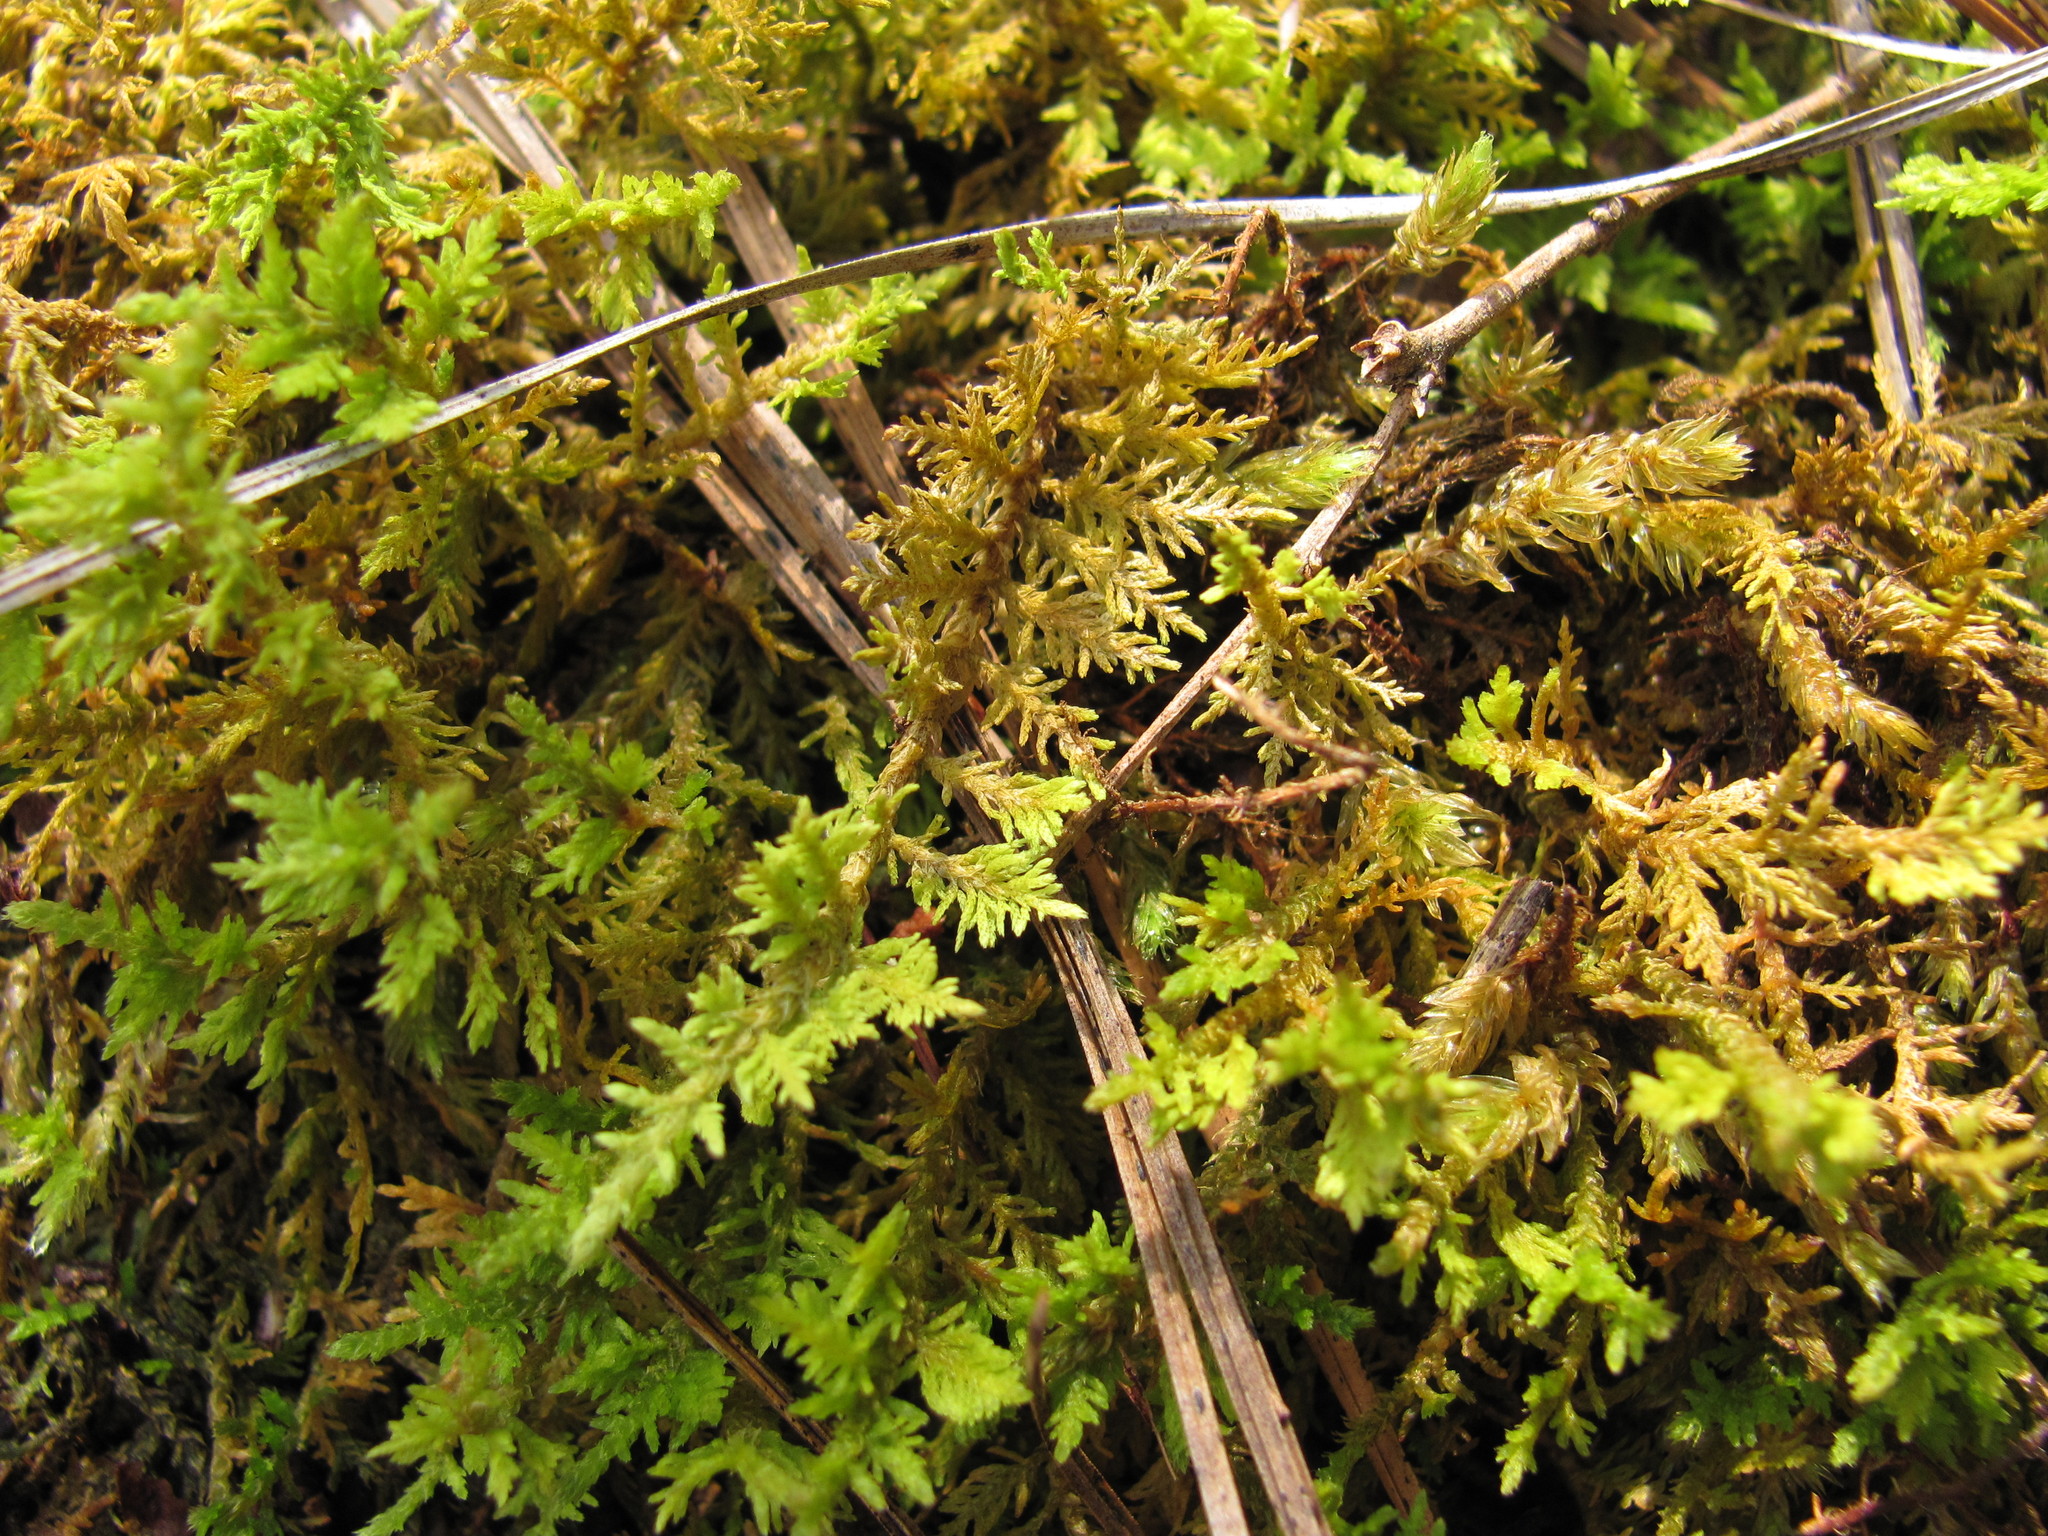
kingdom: Plantae
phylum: Bryophyta
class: Bryopsida
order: Hypnales
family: Thuidiaceae
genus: Thuidium
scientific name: Thuidium delicatulum
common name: Delicate fern moss
